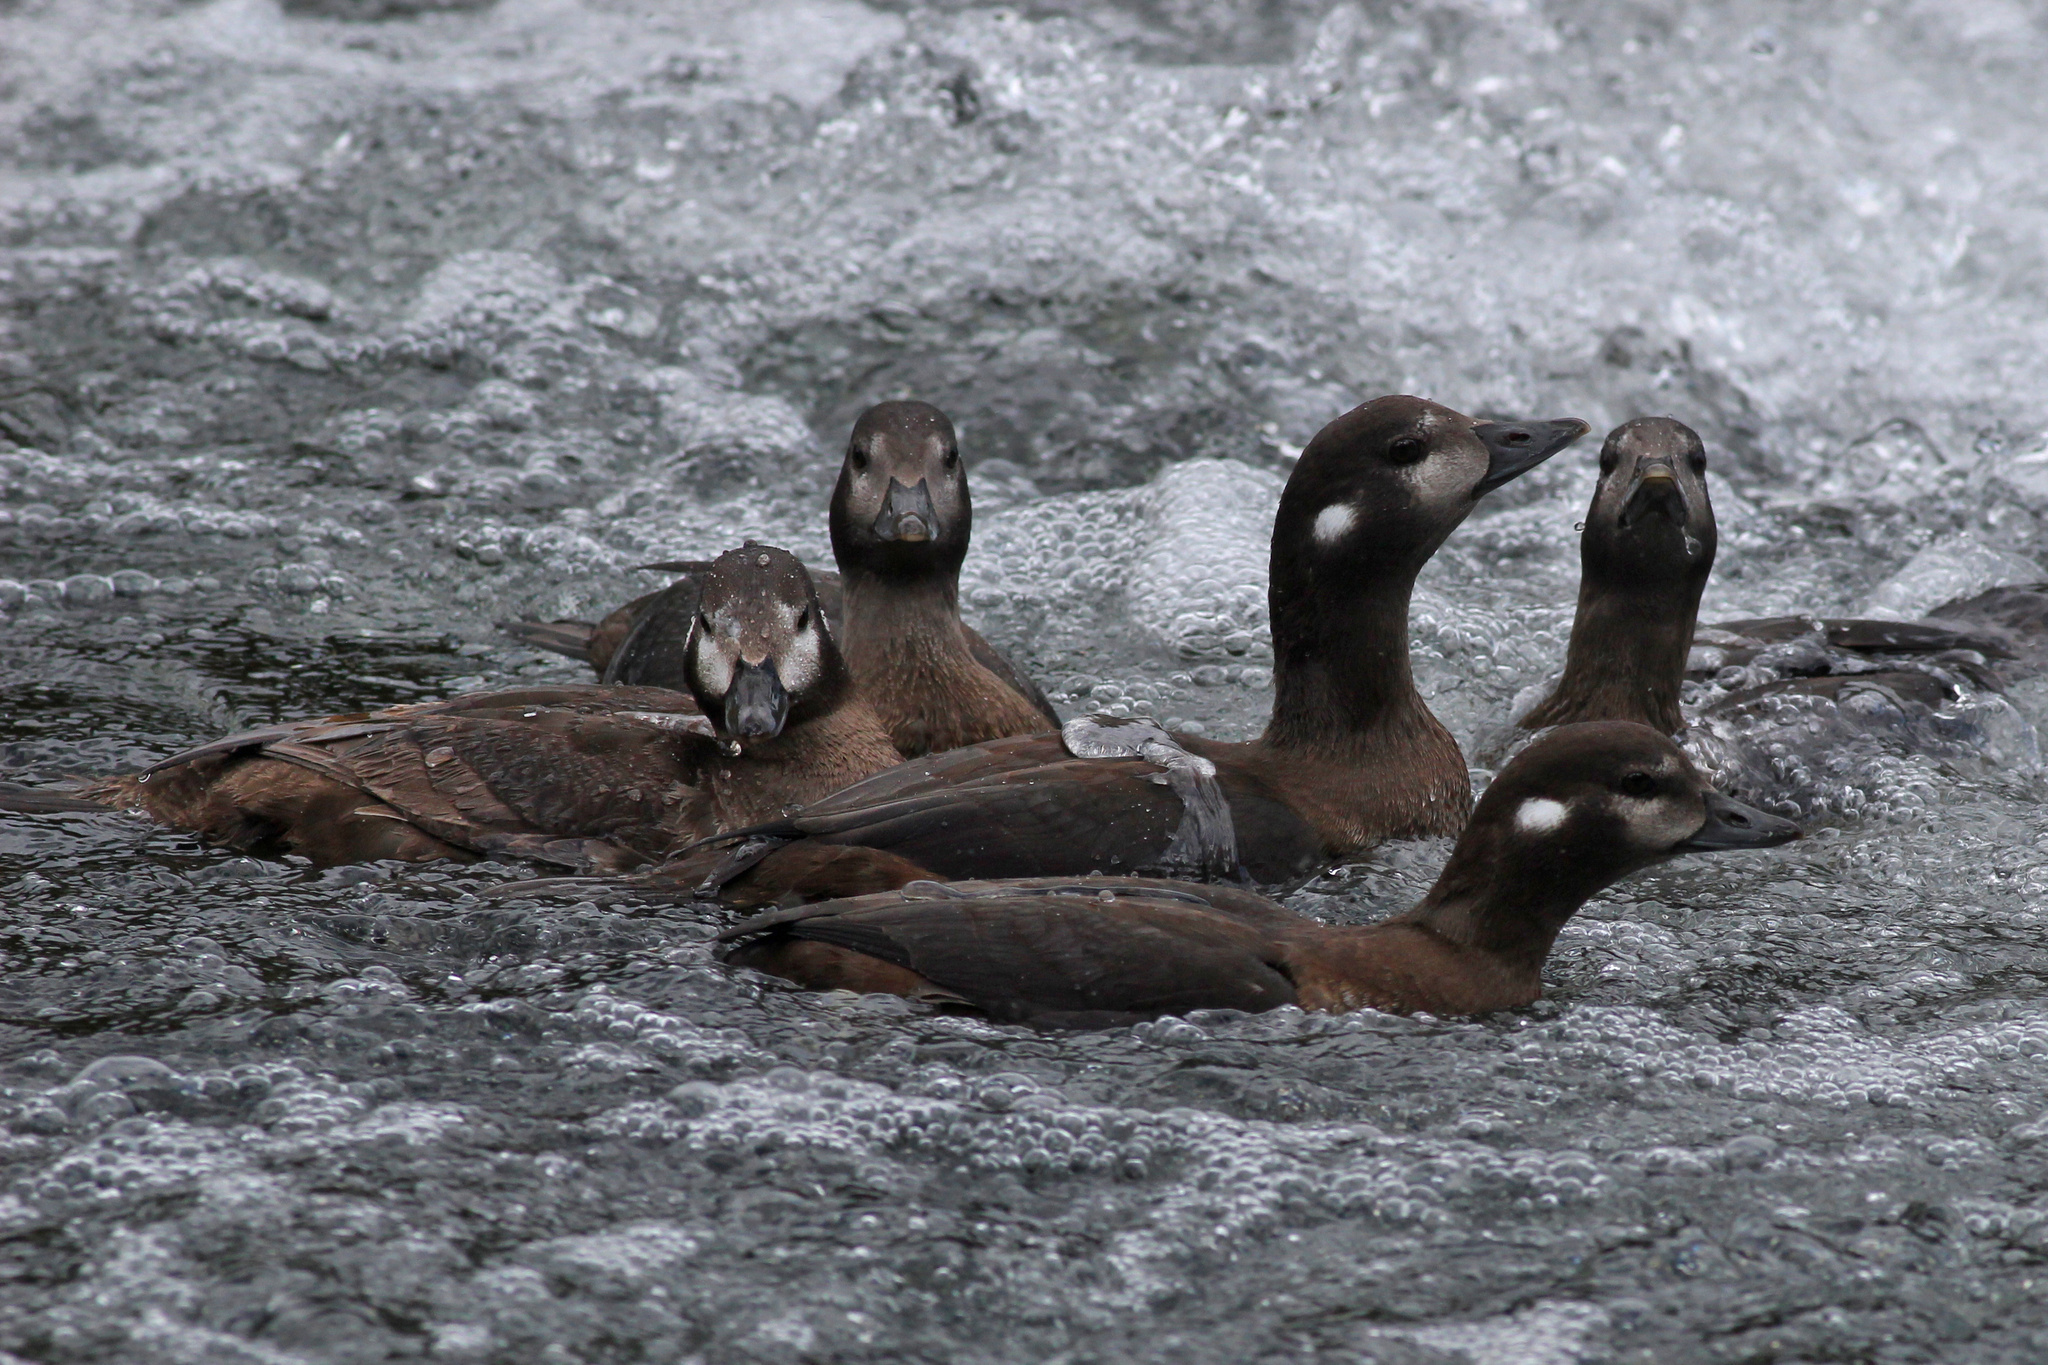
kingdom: Animalia
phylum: Chordata
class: Aves
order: Anseriformes
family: Anatidae
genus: Histrionicus
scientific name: Histrionicus histrionicus
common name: Harlequin duck
